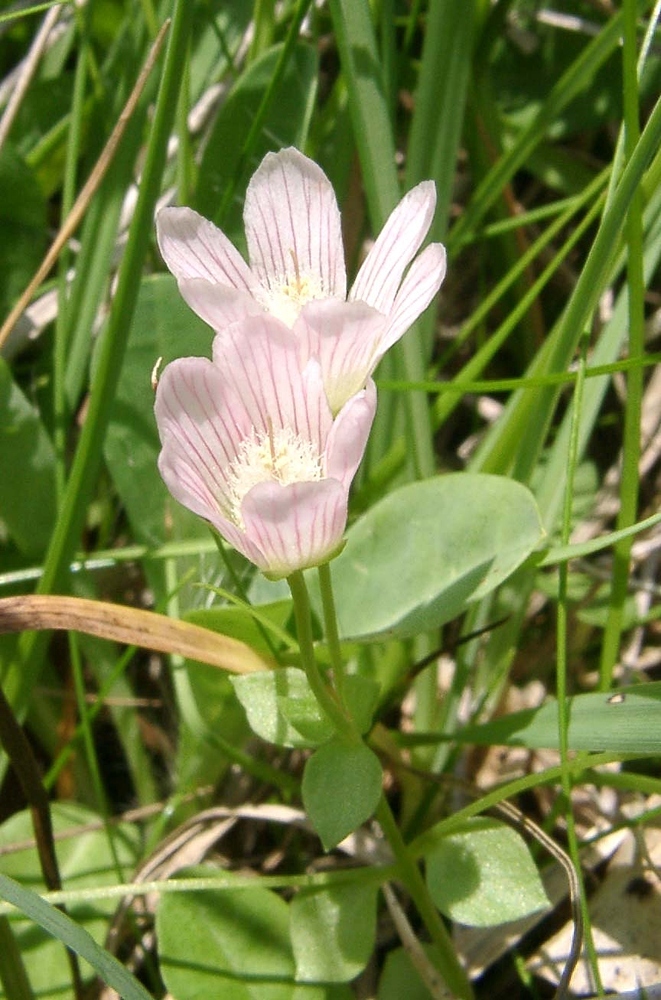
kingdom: Plantae
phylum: Tracheophyta
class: Magnoliopsida
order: Ericales
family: Primulaceae
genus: Lysimachia
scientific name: Lysimachia tenella
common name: European bog pimpernel
